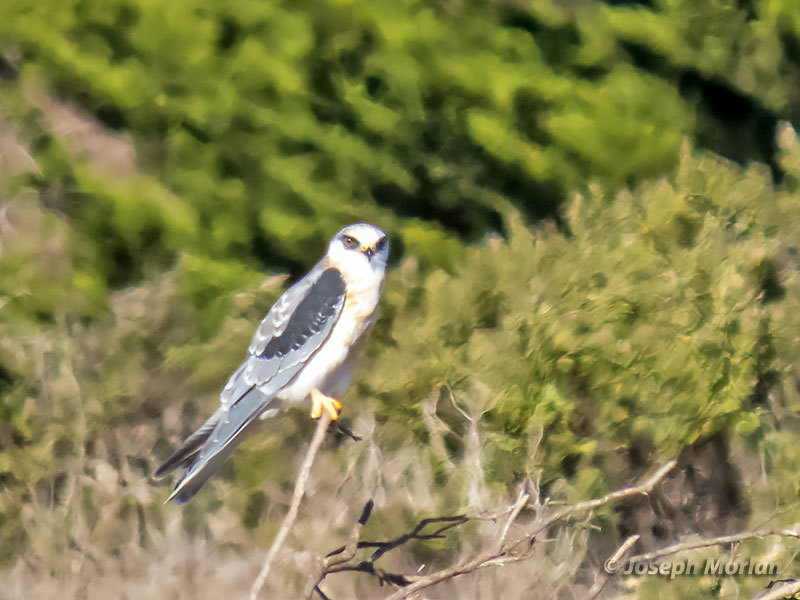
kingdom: Animalia
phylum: Chordata
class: Aves
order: Accipitriformes
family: Accipitridae
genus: Elanus
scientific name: Elanus leucurus
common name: White-tailed kite
